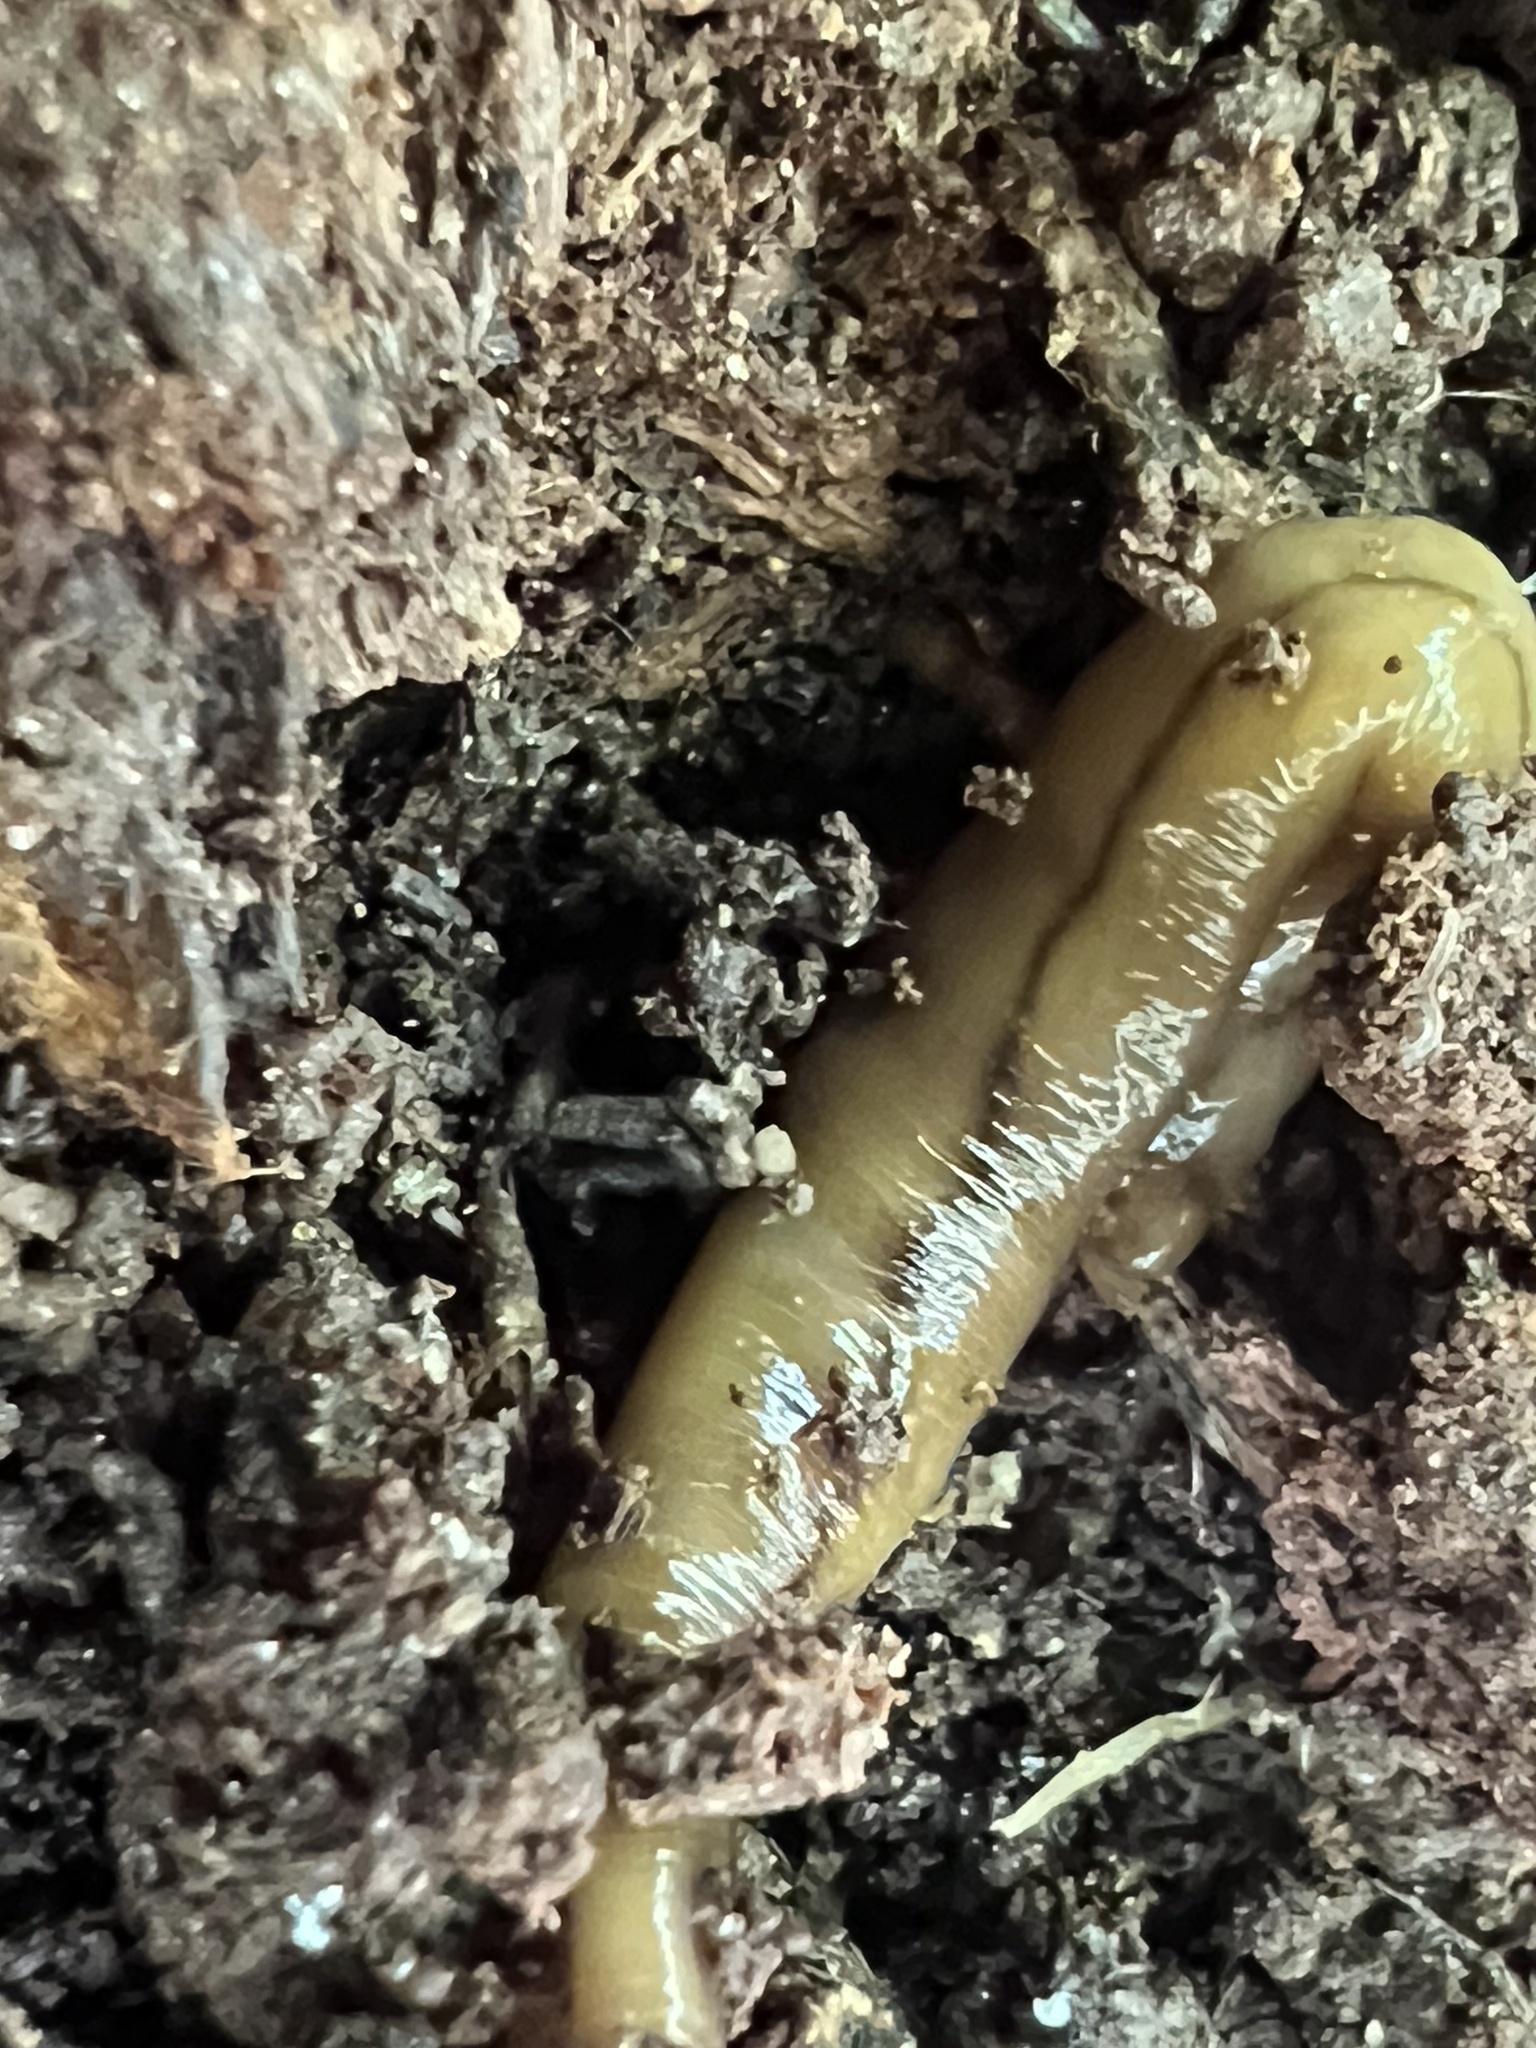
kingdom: Animalia
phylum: Platyhelminthes
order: Tricladida
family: Geoplanidae
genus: Bipalium
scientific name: Bipalium adventitium
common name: Land planarian
